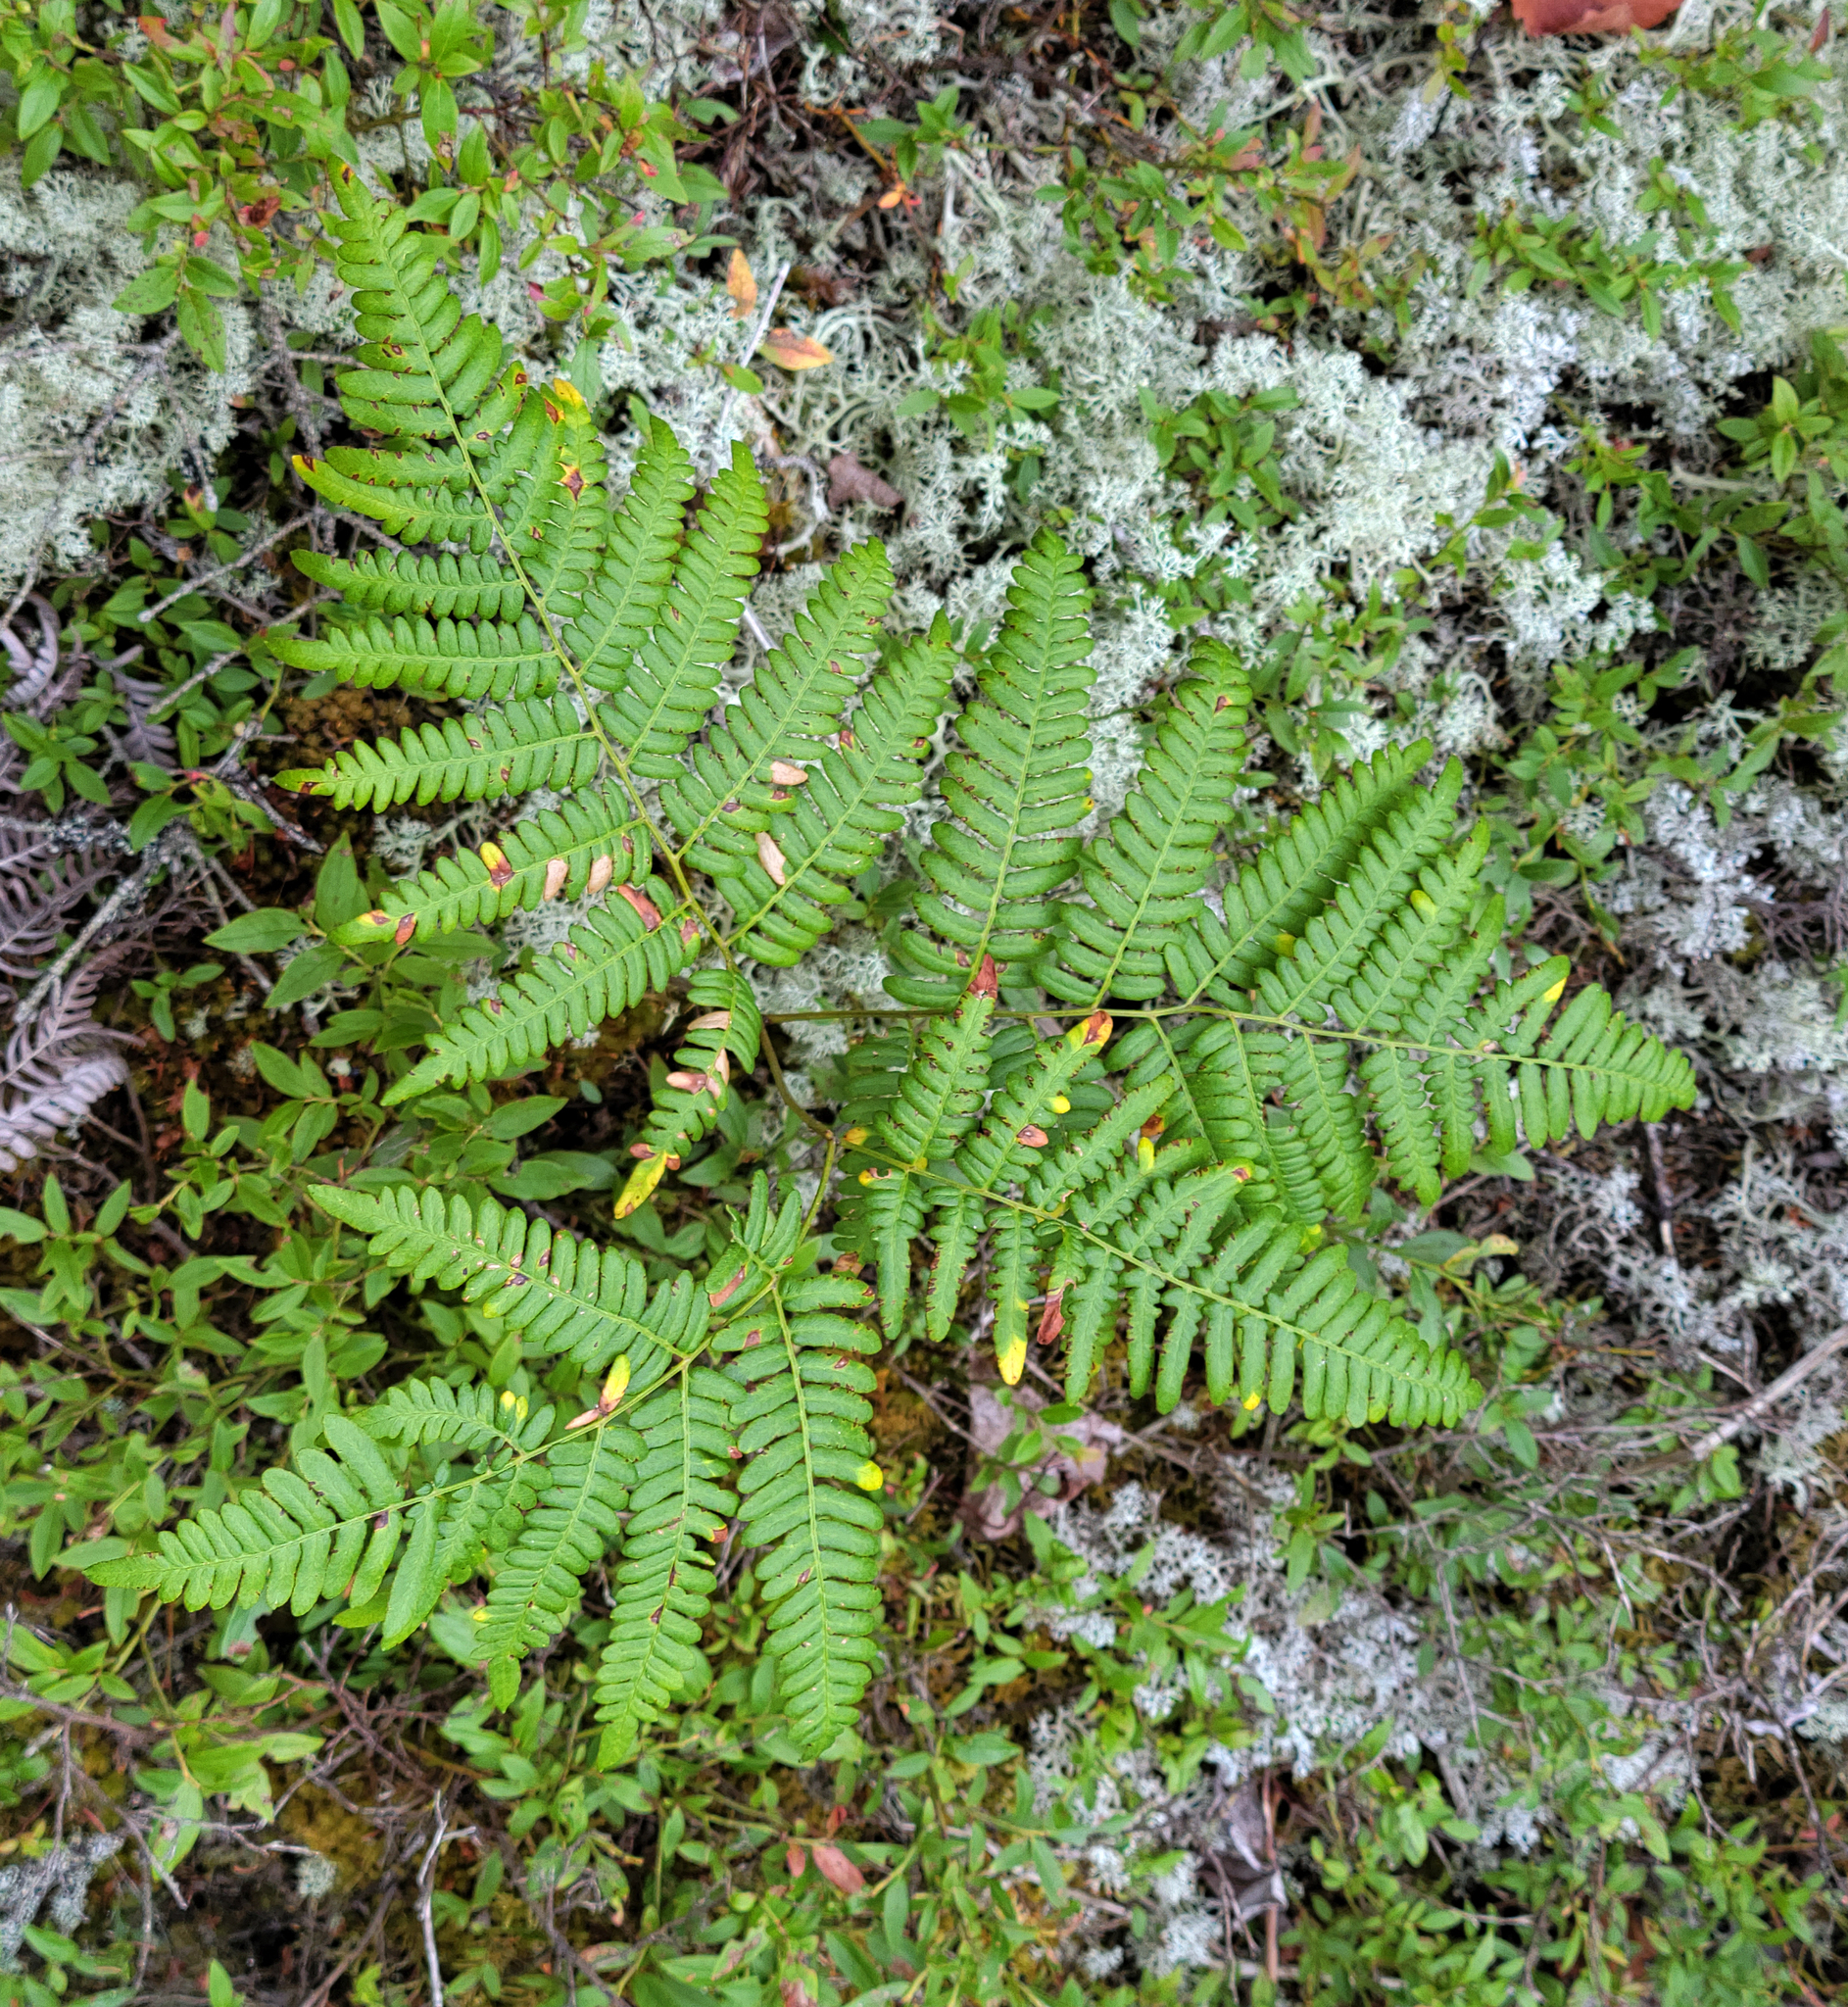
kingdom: Plantae
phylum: Tracheophyta
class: Polypodiopsida
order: Polypodiales
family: Dennstaedtiaceae
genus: Pteridium
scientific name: Pteridium aquilinum
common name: Bracken
